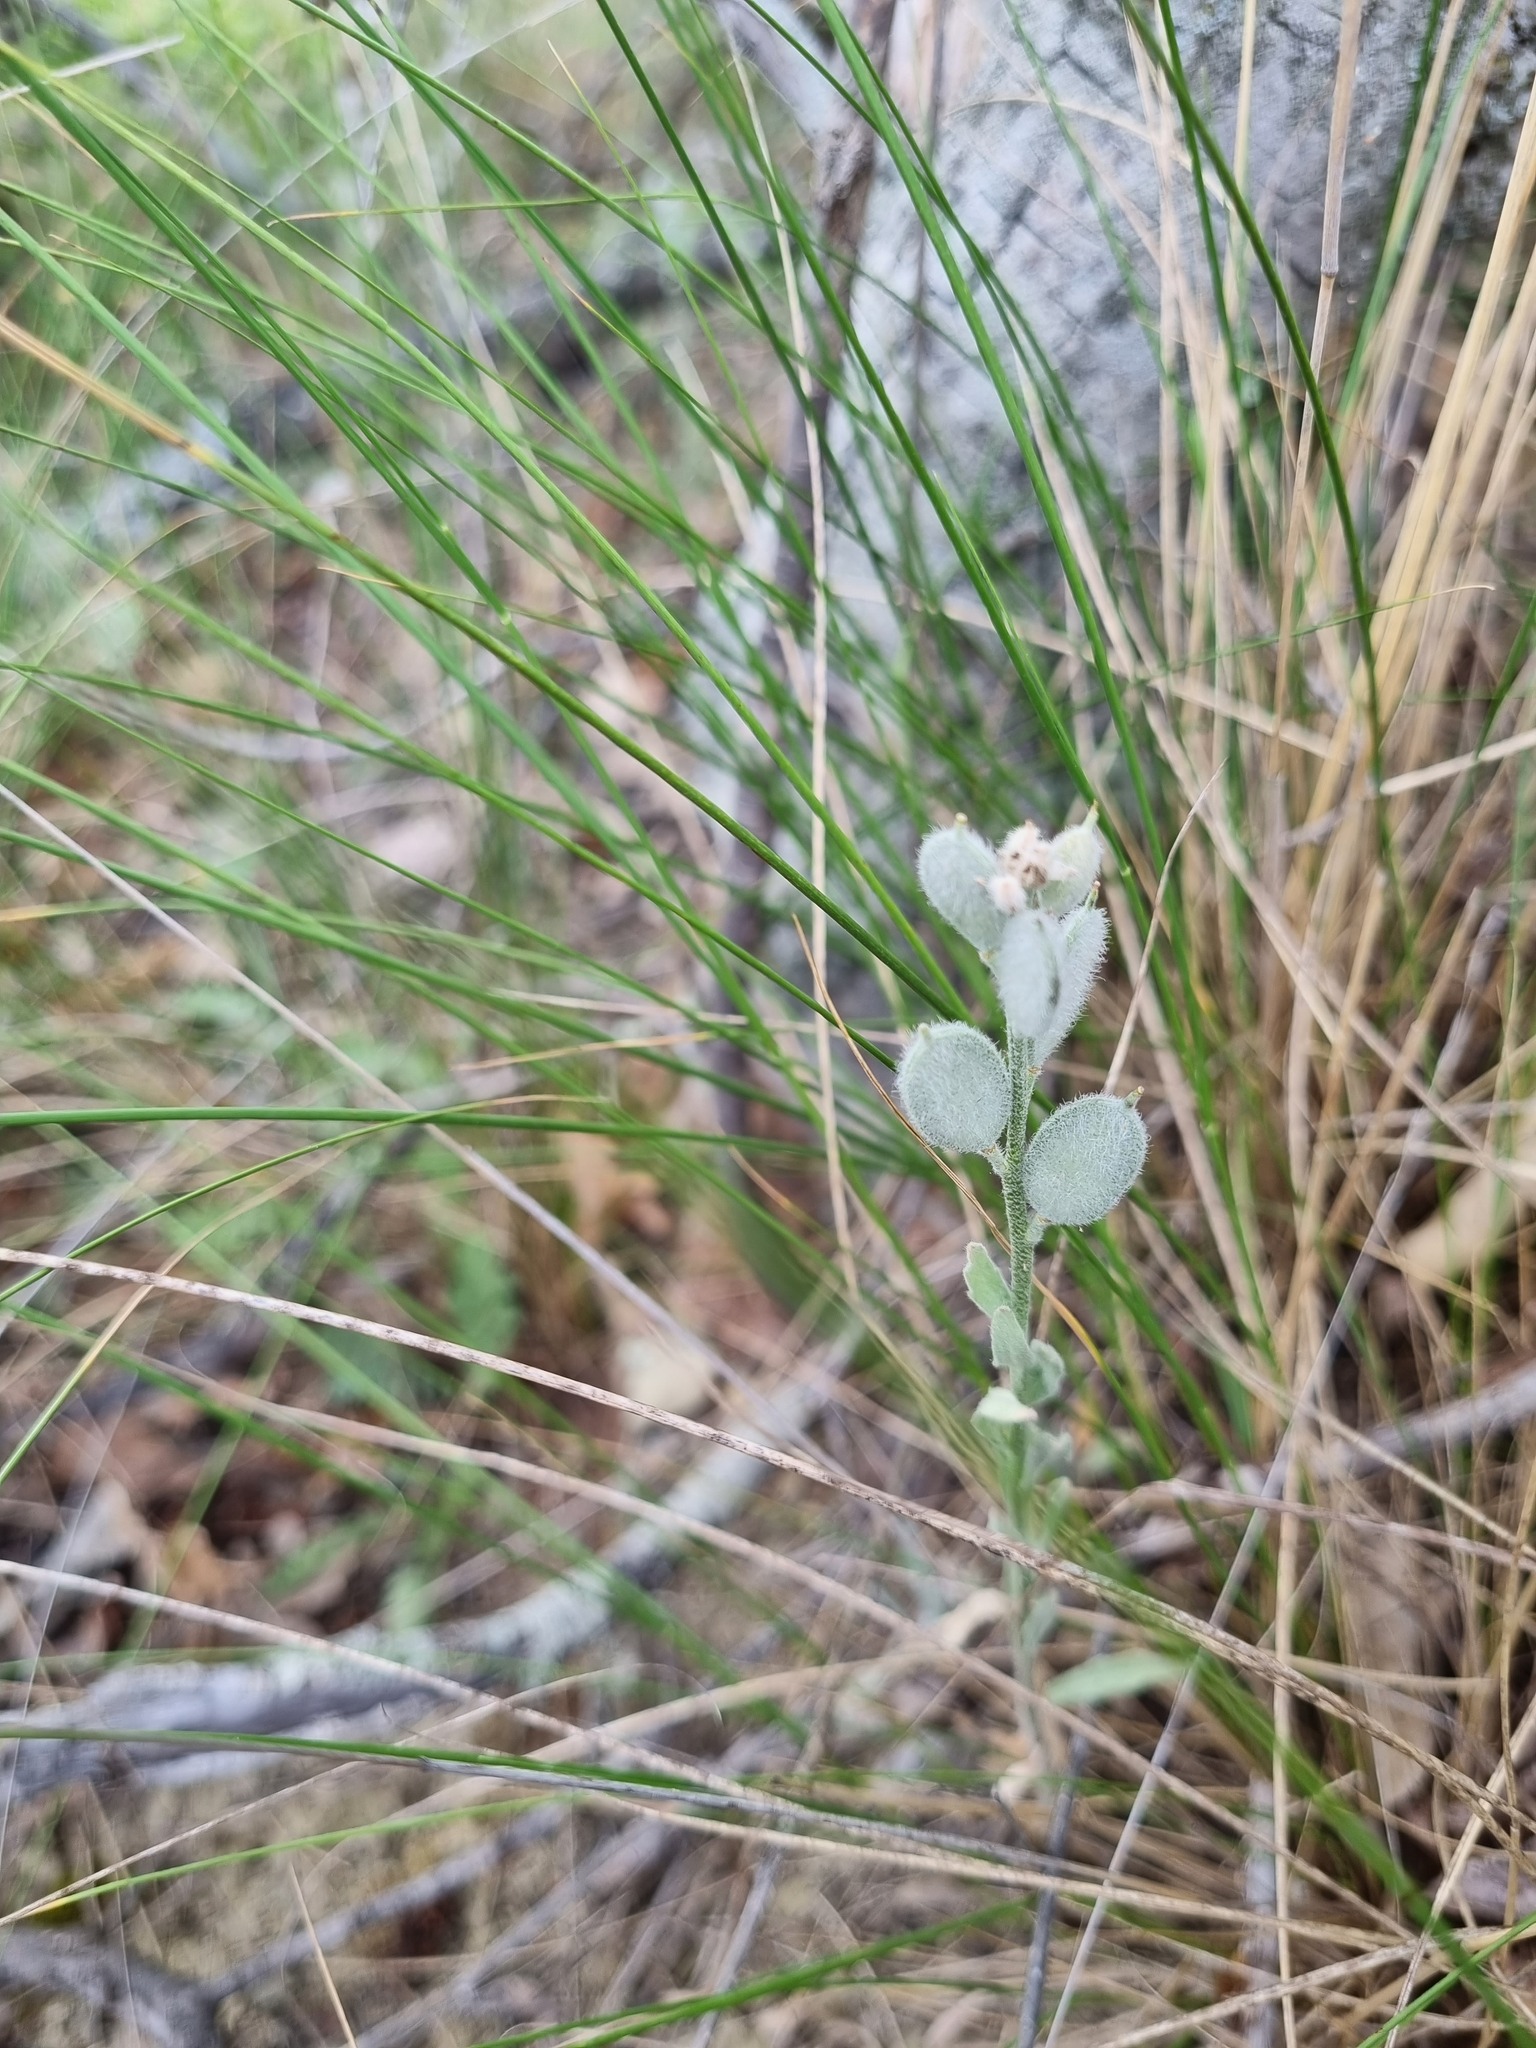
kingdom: Plantae
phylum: Tracheophyta
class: Magnoliopsida
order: Brassicales
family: Brassicaceae
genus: Fibigia
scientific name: Fibigia clypeata
